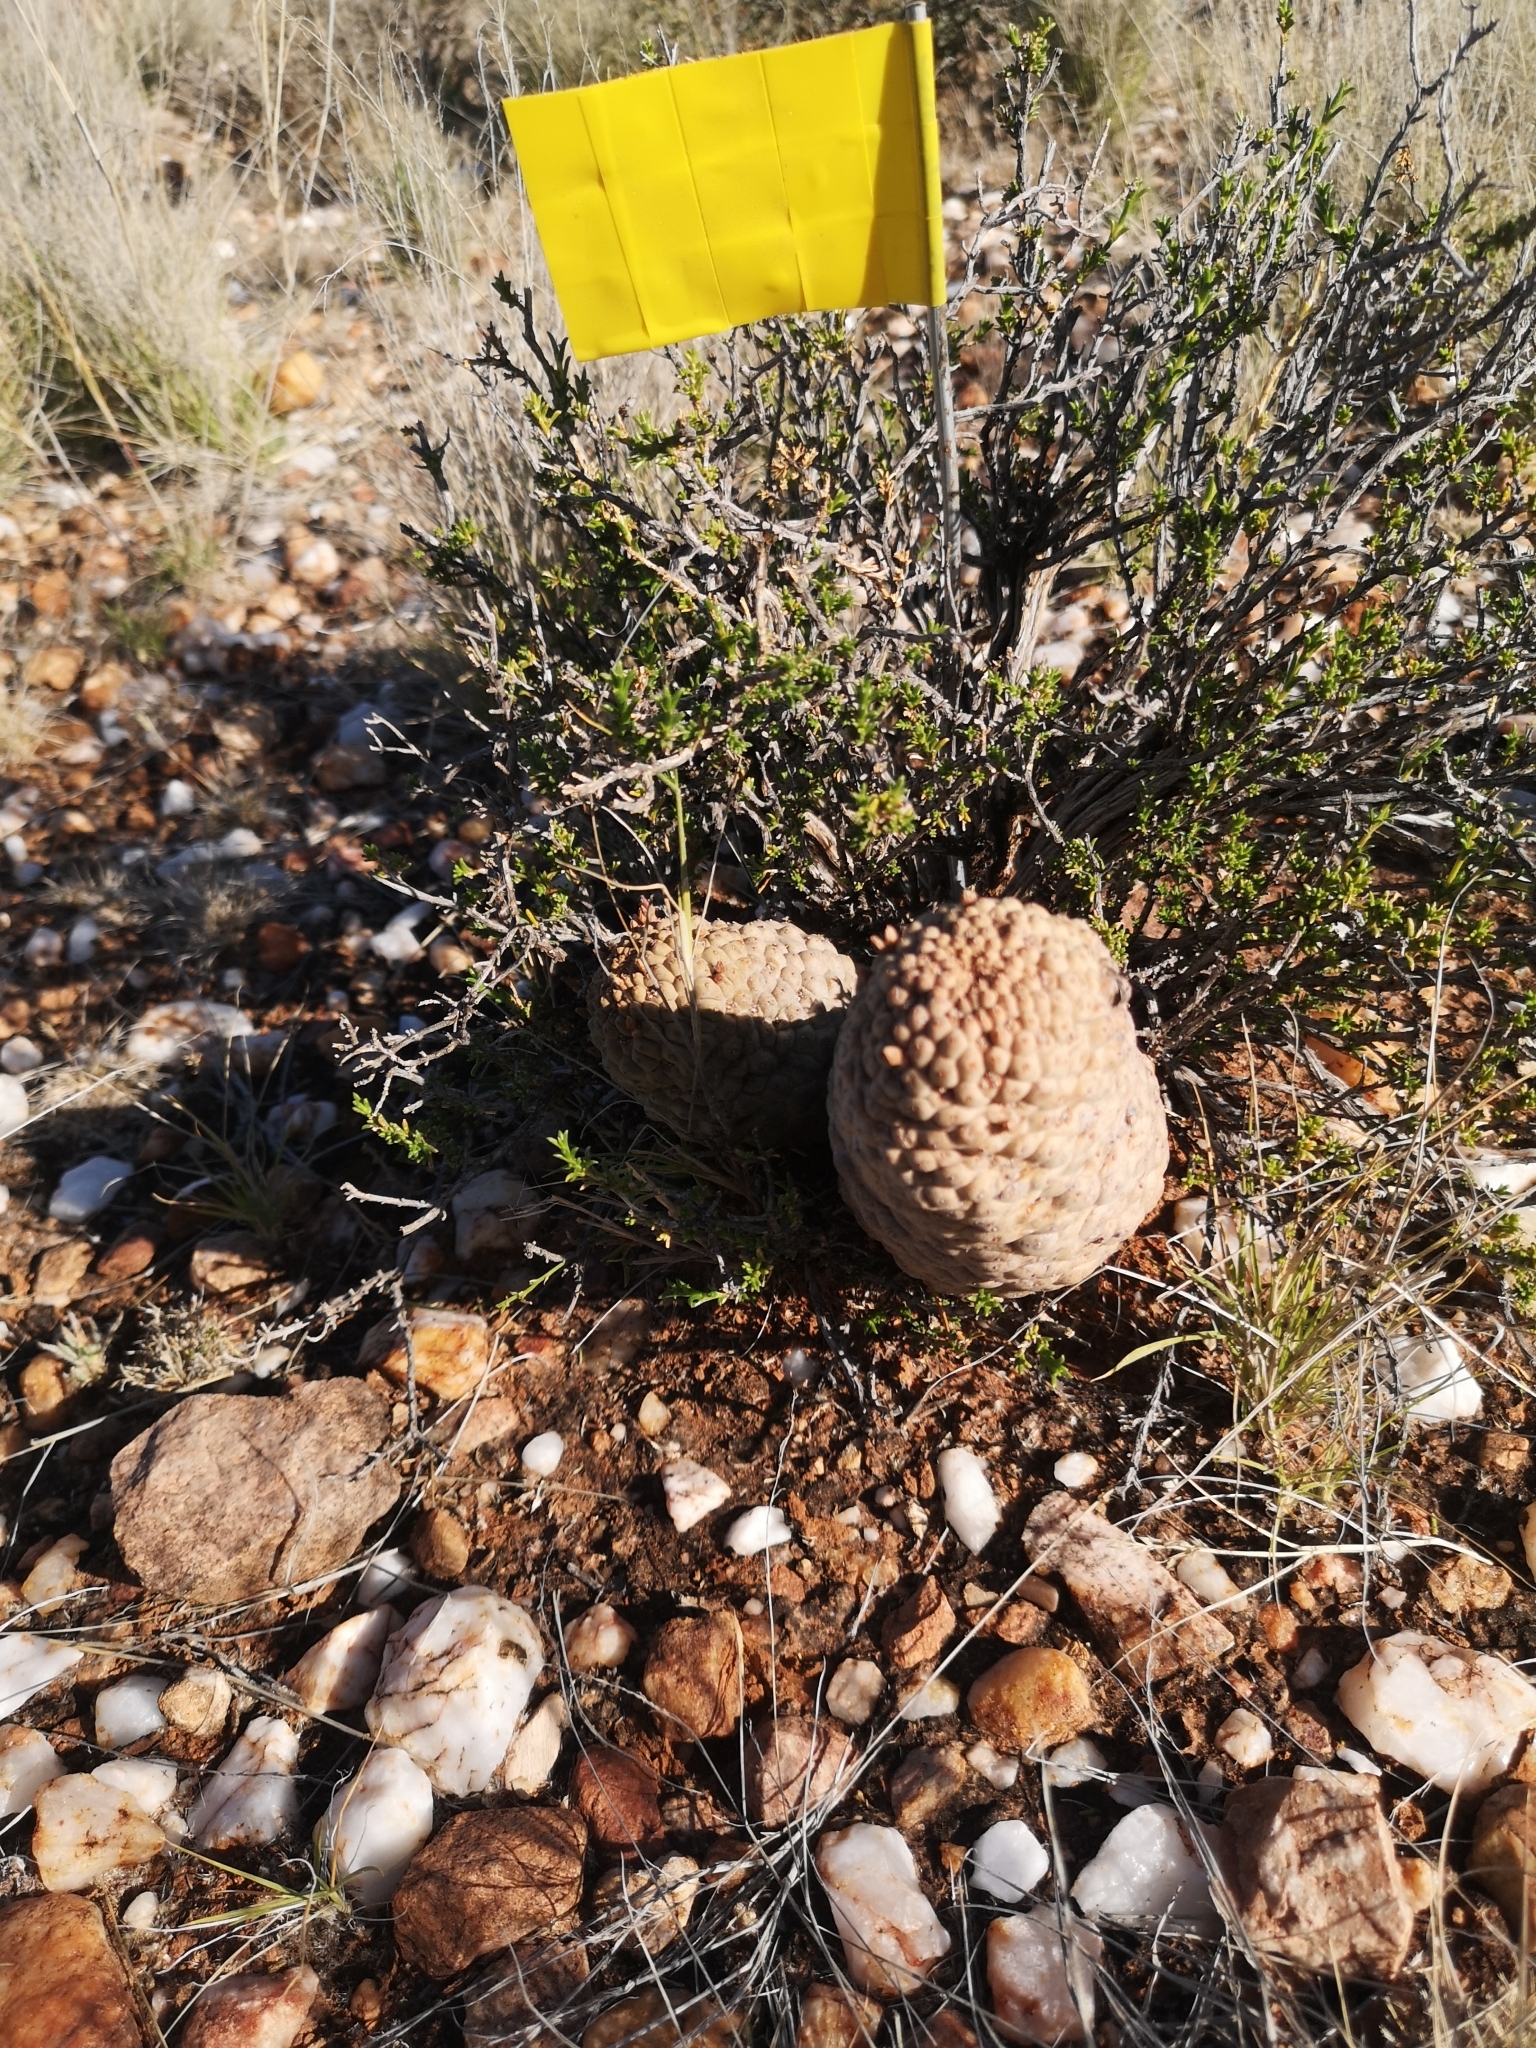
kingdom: Plantae
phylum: Tracheophyta
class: Magnoliopsida
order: Gentianales
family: Apocynaceae
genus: Ceropegia
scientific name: Ceropegia marlothii
